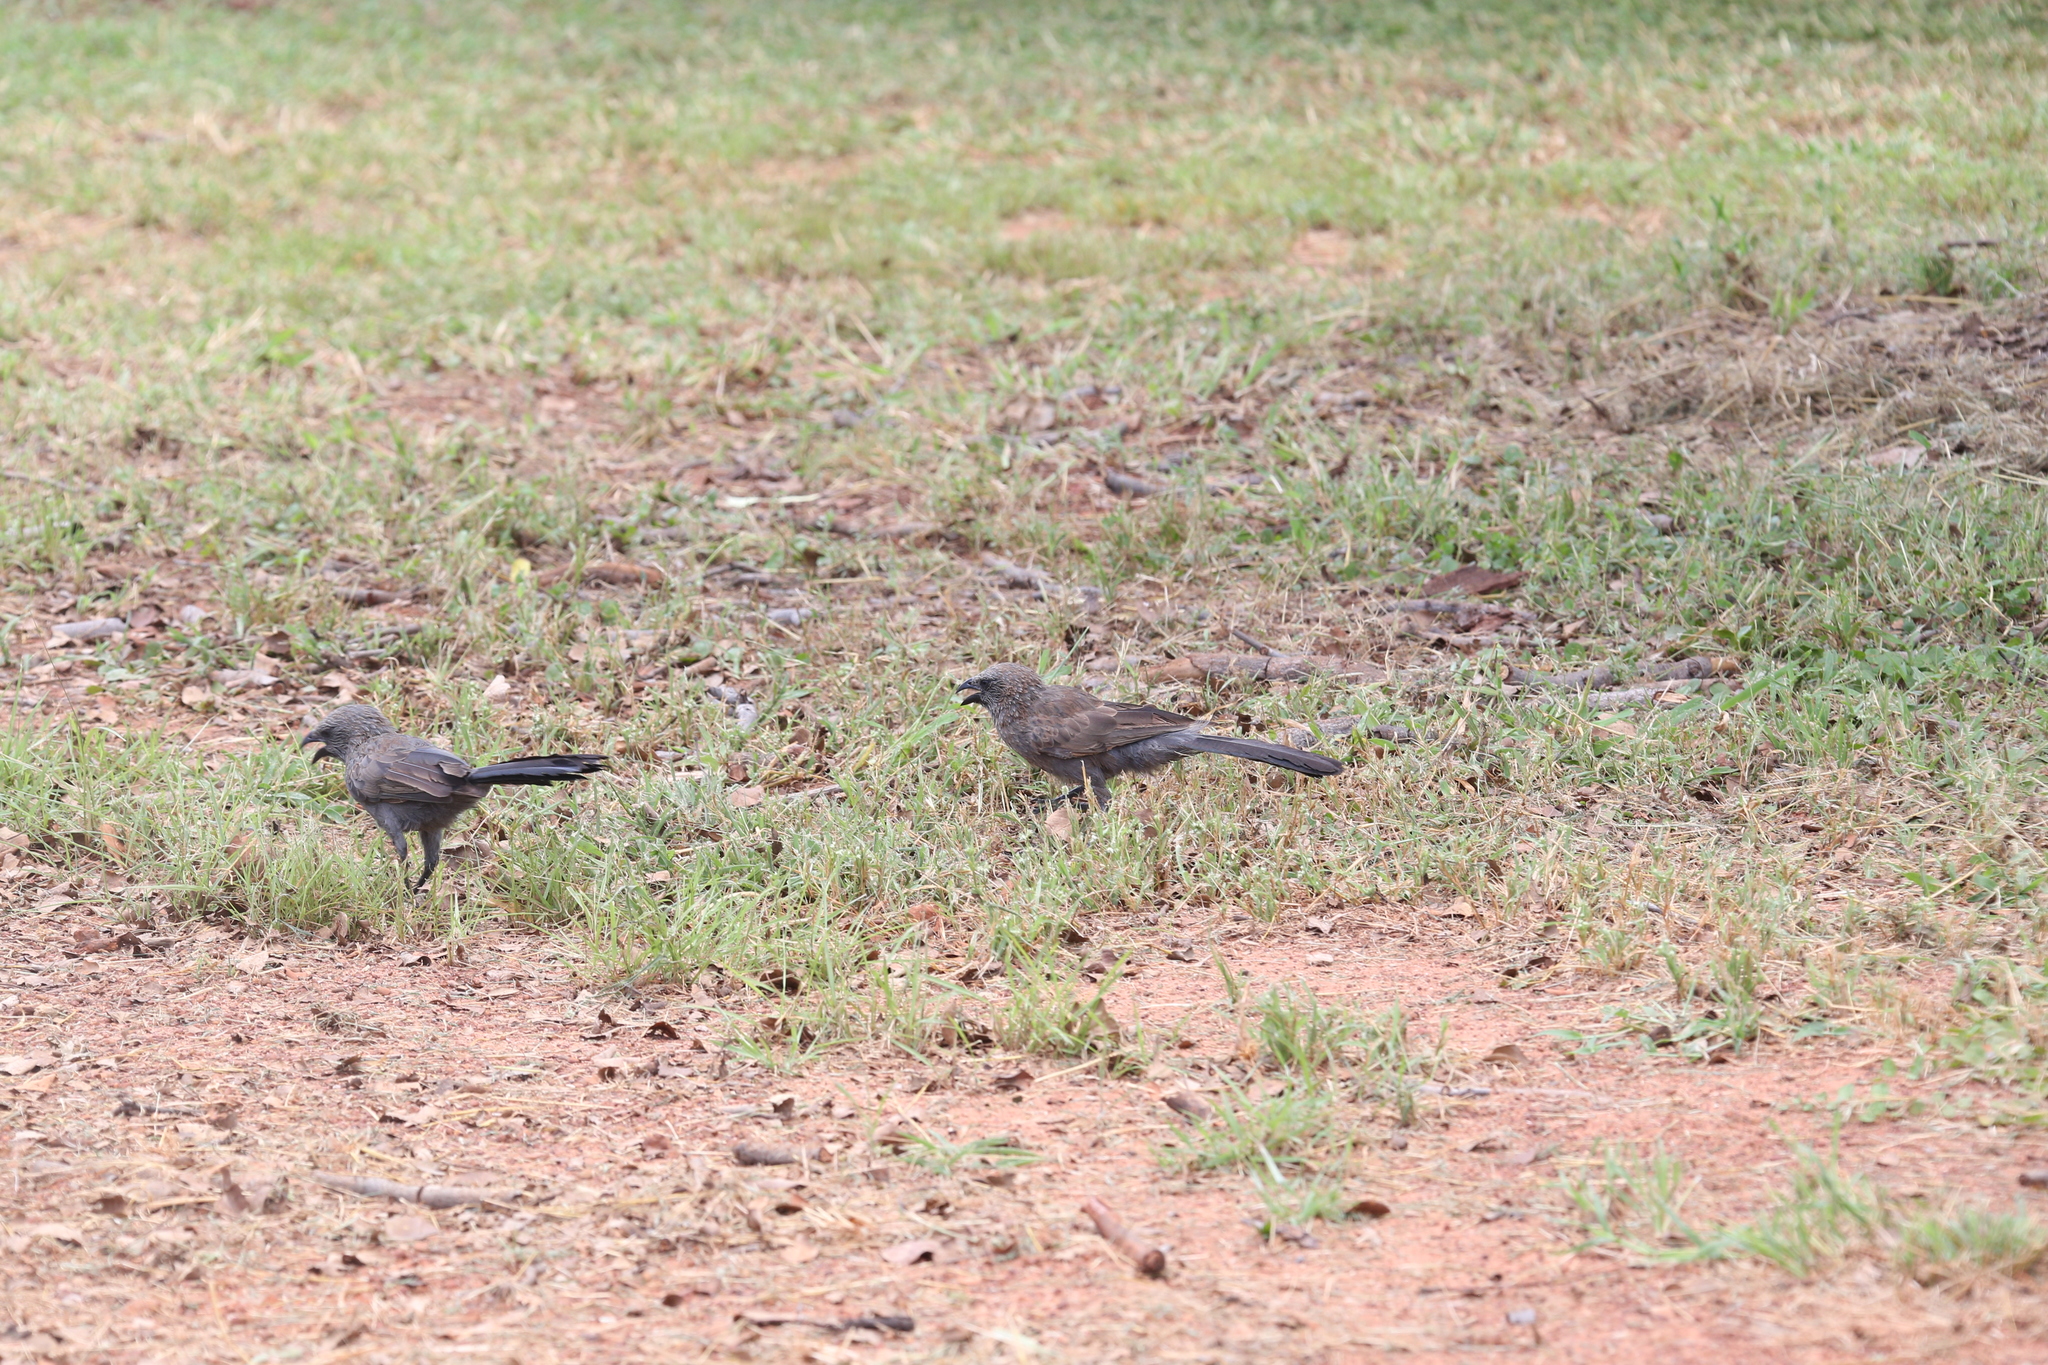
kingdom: Animalia
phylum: Chordata
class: Aves
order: Passeriformes
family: Corcoracidae
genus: Struthidea
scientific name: Struthidea cinerea
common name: Apostlebird
